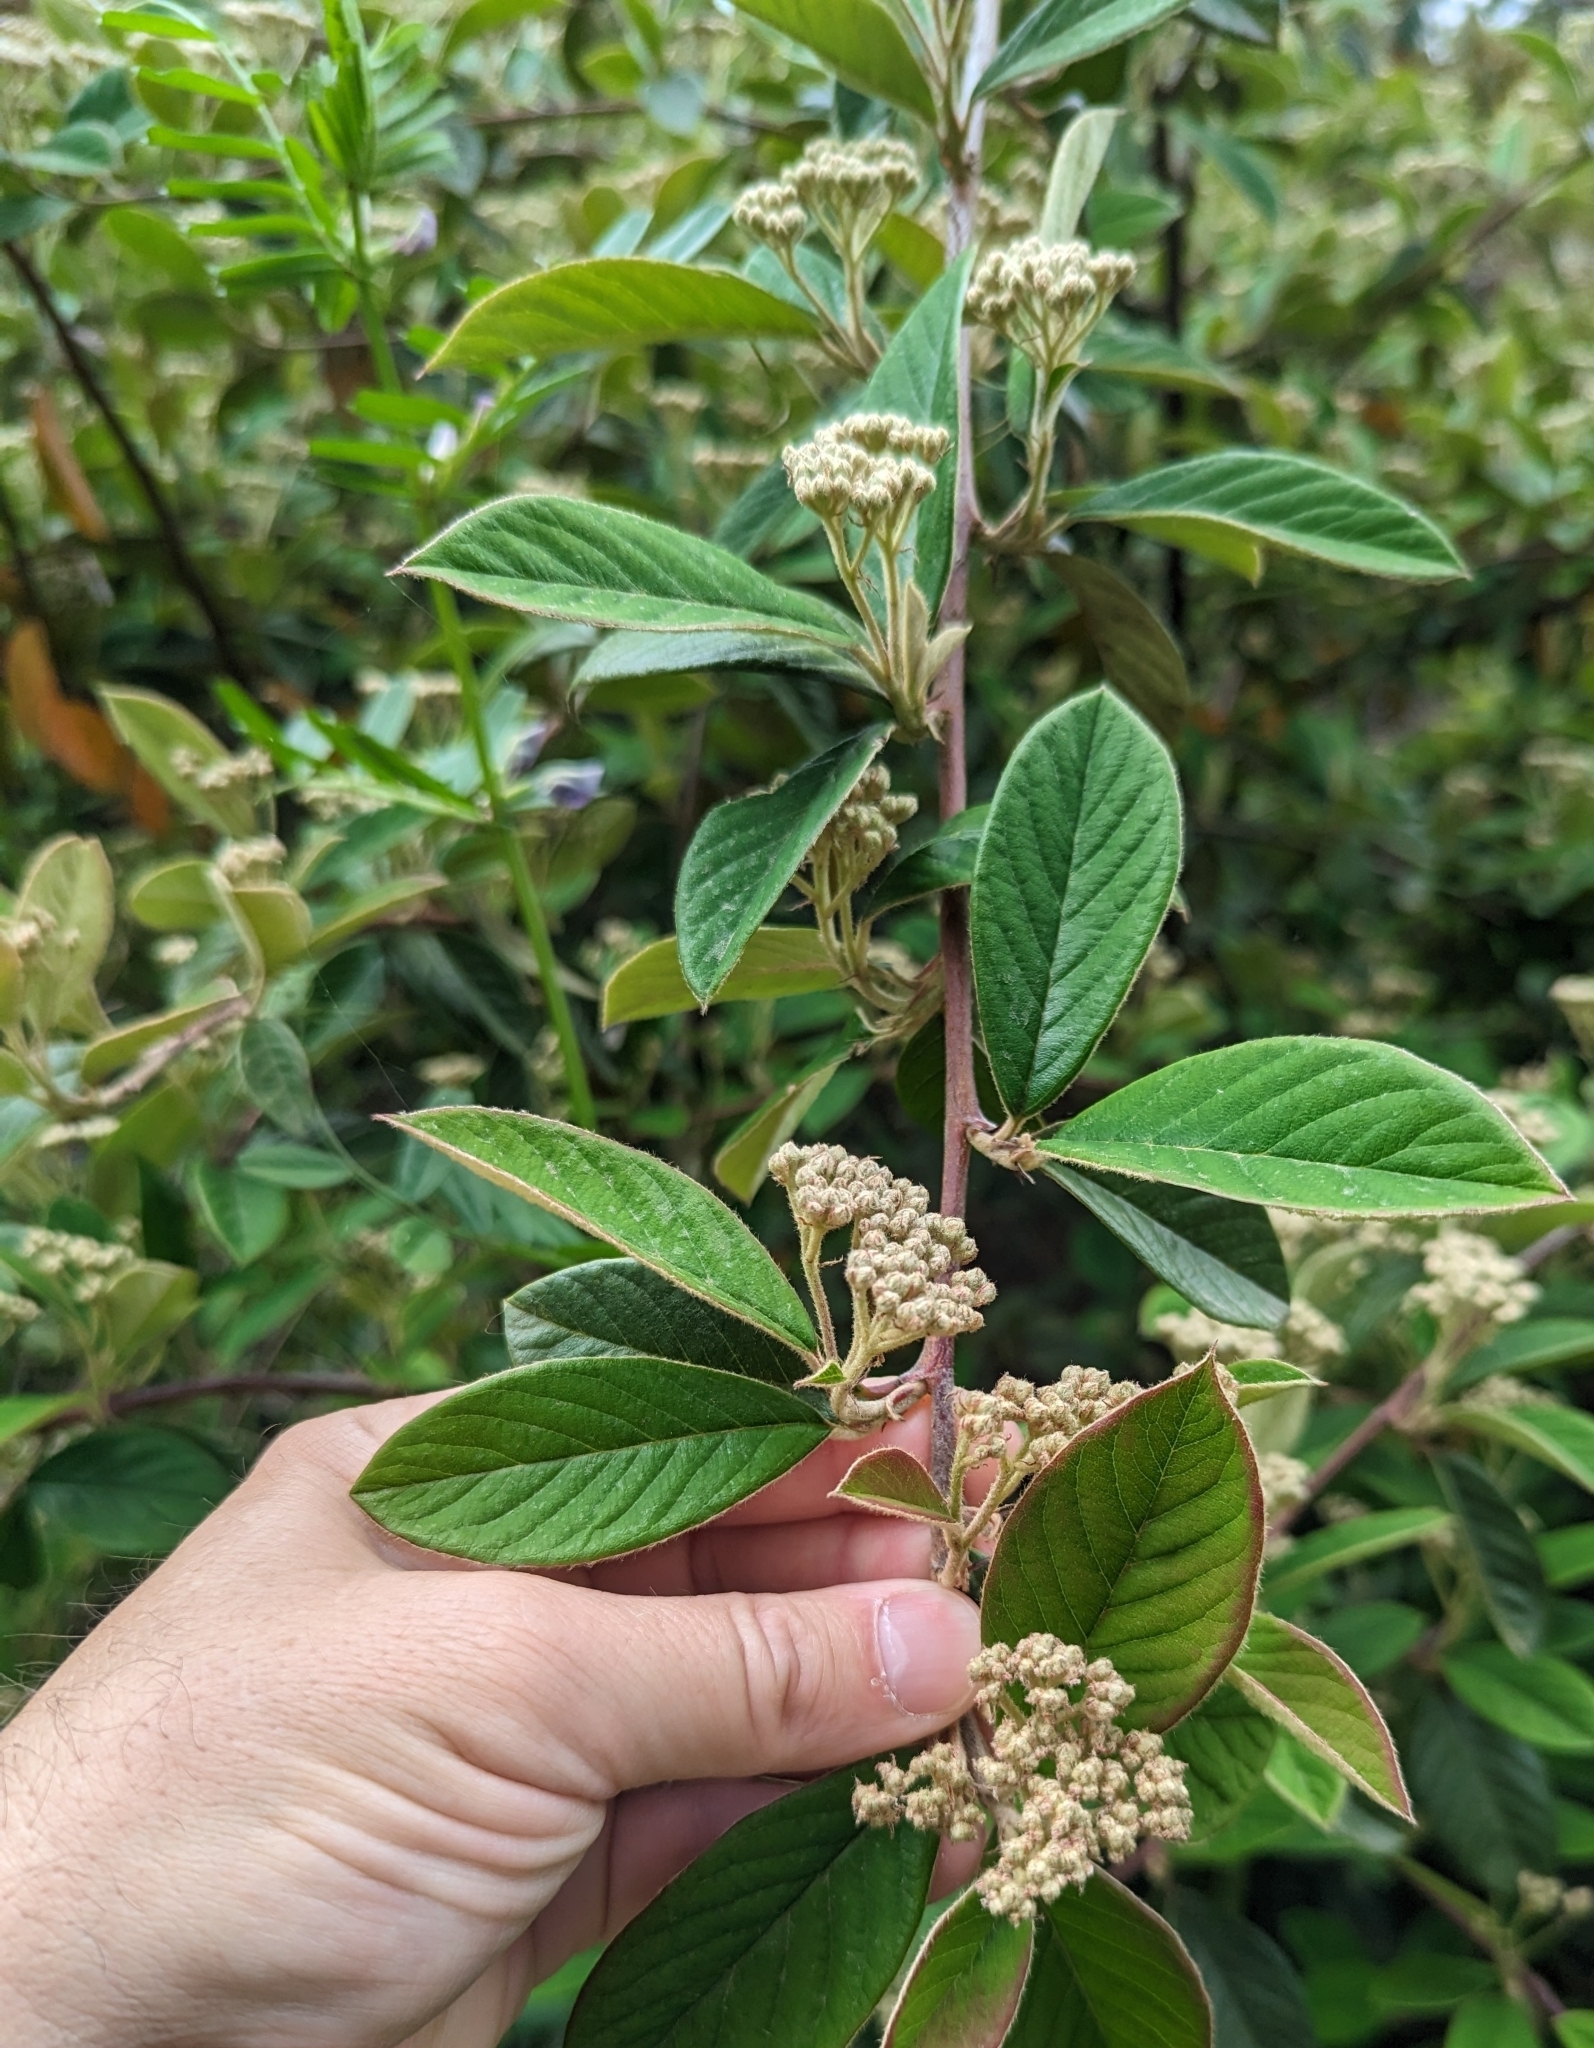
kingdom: Plantae
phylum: Tracheophyta
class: Magnoliopsida
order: Rosales
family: Rosaceae
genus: Cotoneaster
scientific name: Cotoneaster coriaceus
